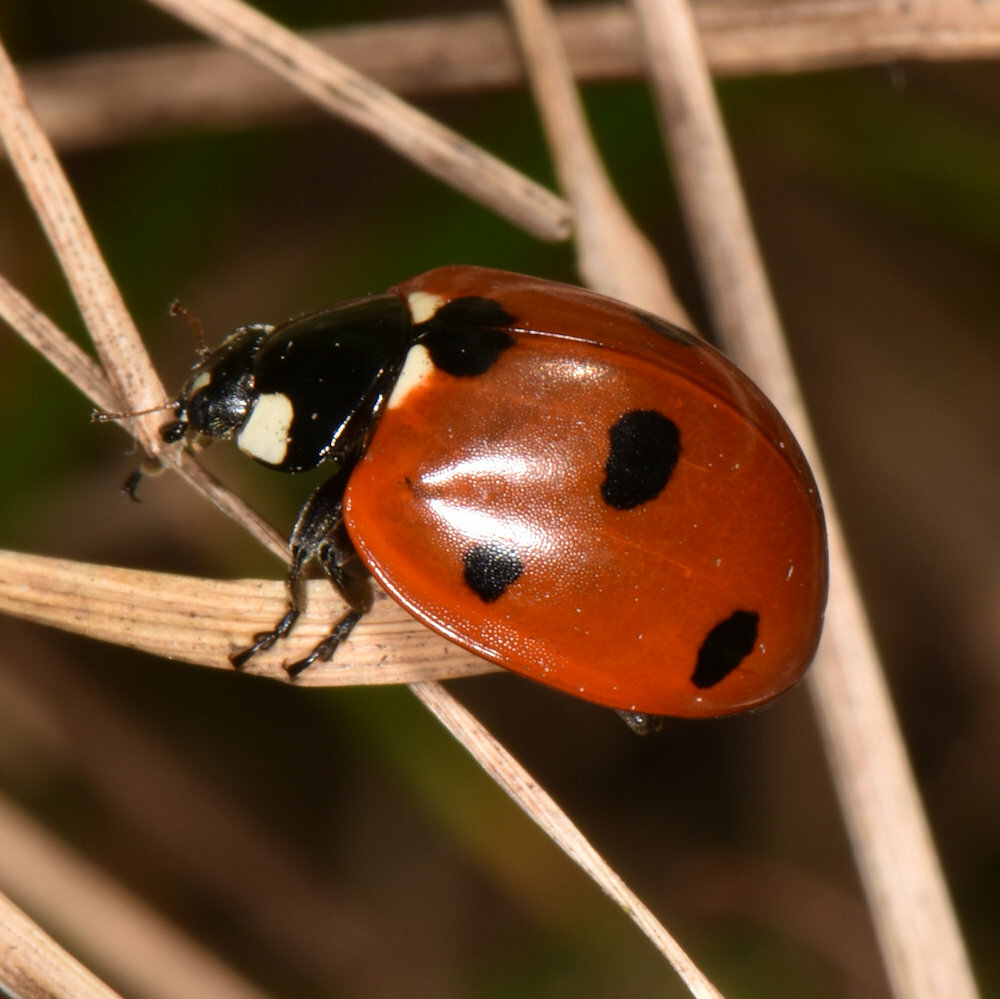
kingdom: Animalia
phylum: Arthropoda
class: Insecta
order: Coleoptera
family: Coccinellidae
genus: Coccinella
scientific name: Coccinella septempunctata
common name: Sevenspotted lady beetle
